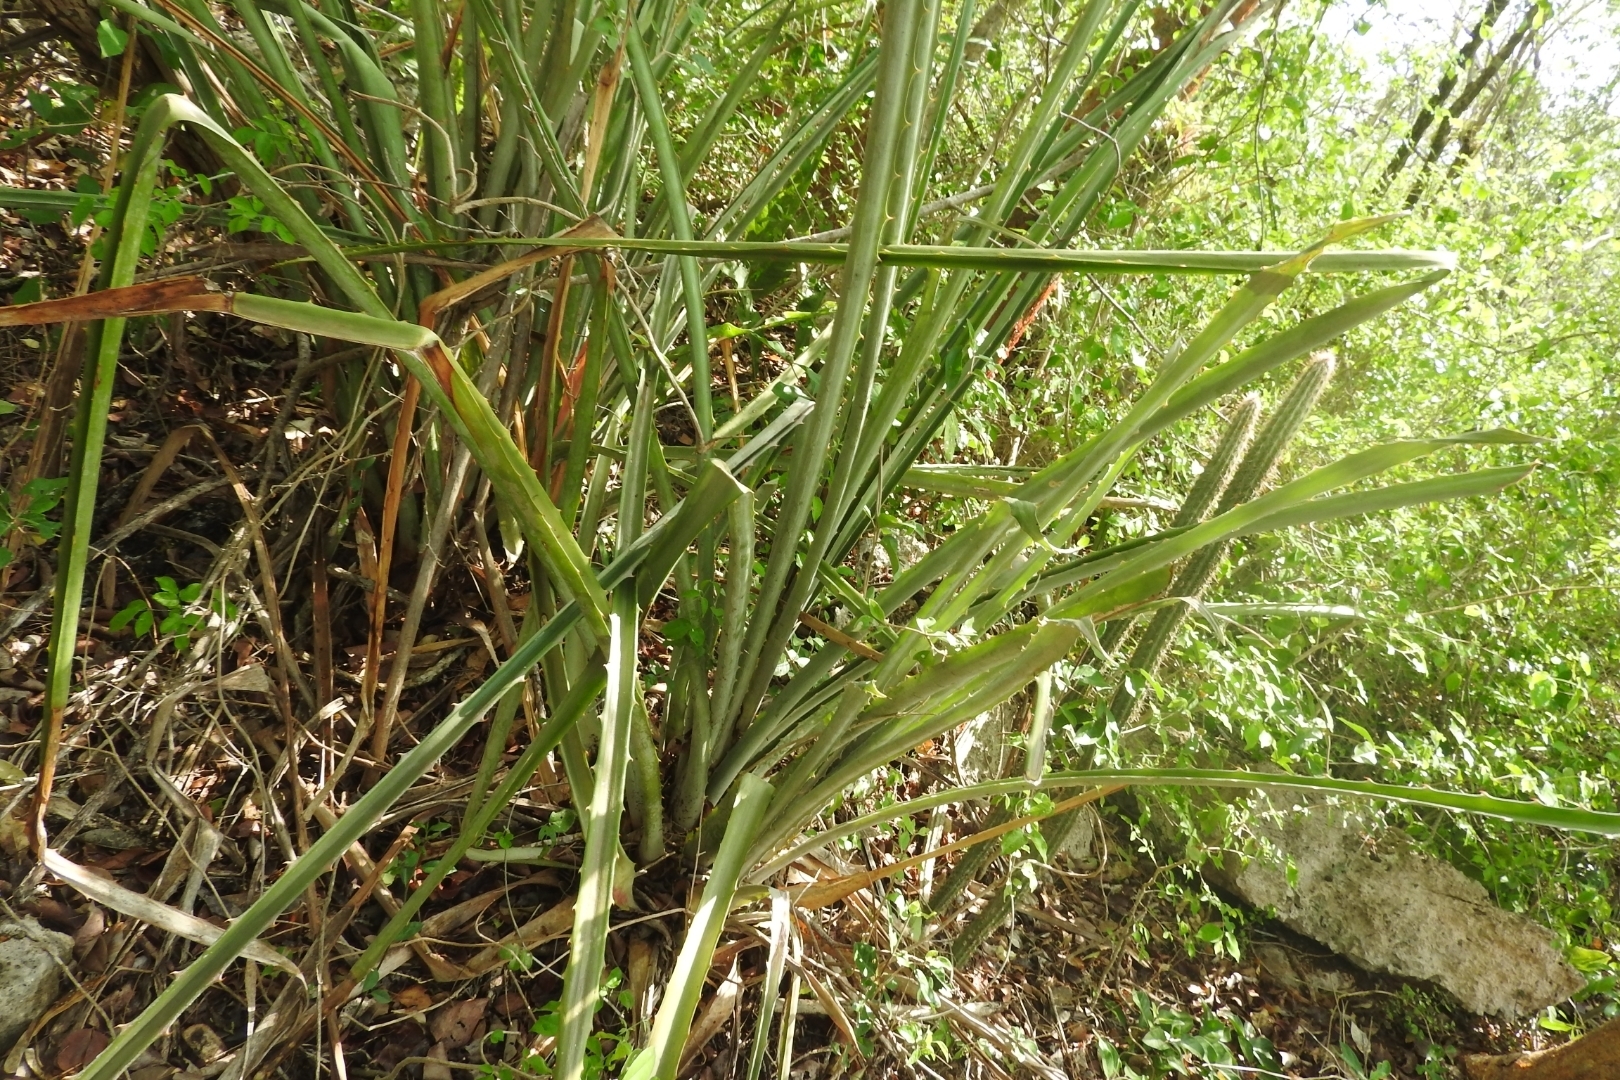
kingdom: Plantae
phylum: Tracheophyta
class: Liliopsida
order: Poales
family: Bromeliaceae
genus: Bromelia
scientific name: Bromelia pinguin
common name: Pinguin
